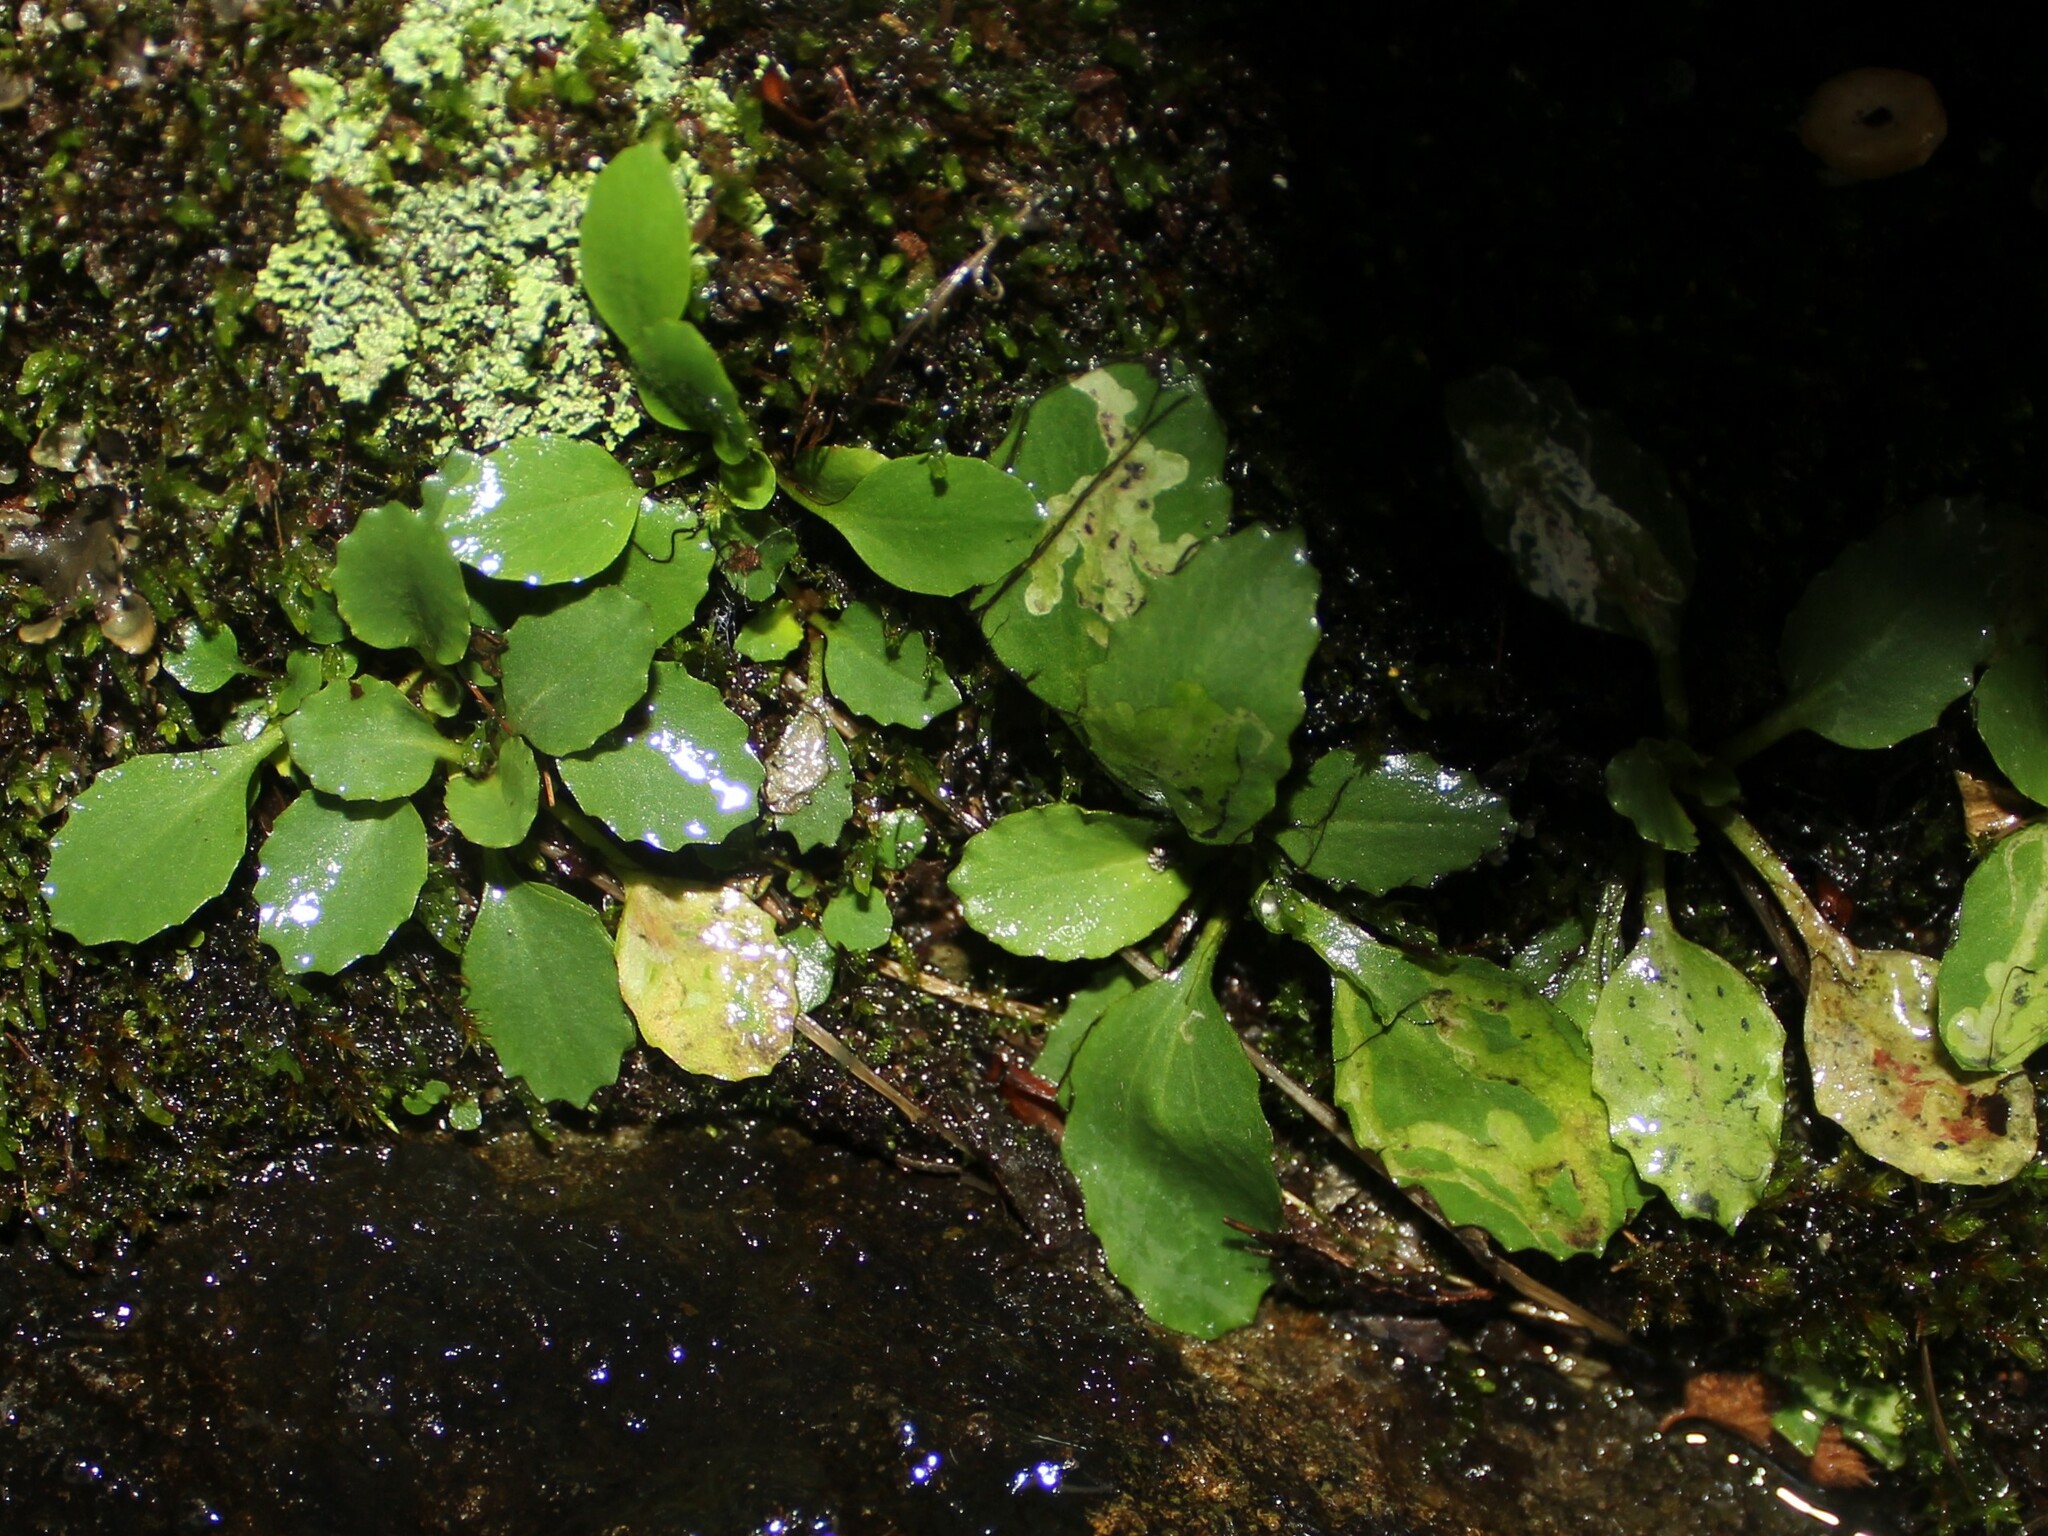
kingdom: Animalia
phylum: Arthropoda
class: Insecta
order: Diptera
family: Agromyzidae
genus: Phytomyza
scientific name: Phytomyza deirdreae
